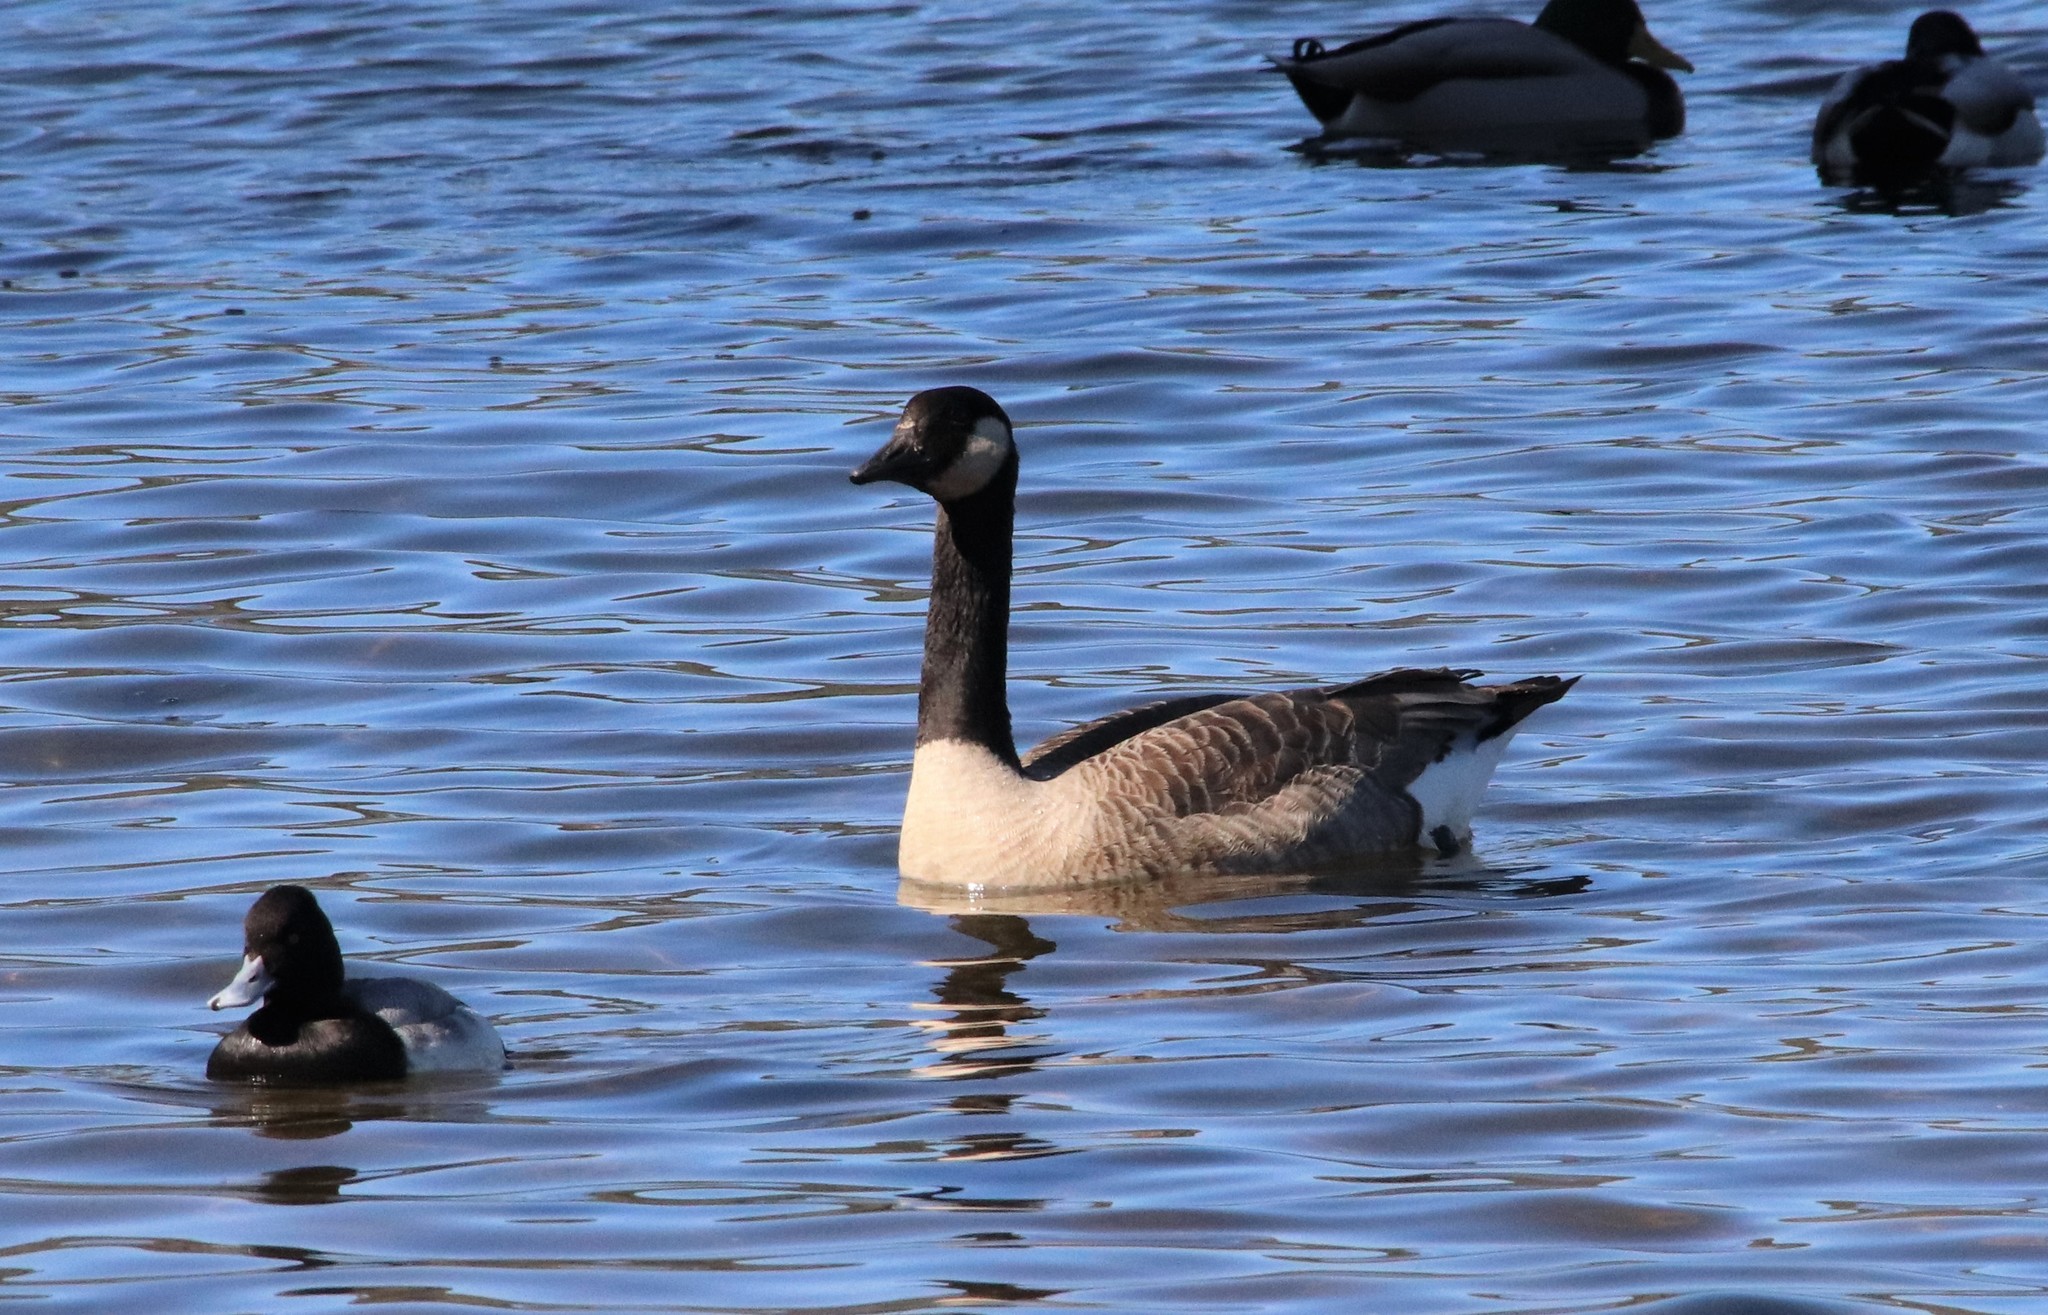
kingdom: Animalia
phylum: Chordata
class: Aves
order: Anseriformes
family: Anatidae
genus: Branta
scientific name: Branta canadensis
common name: Canada goose
